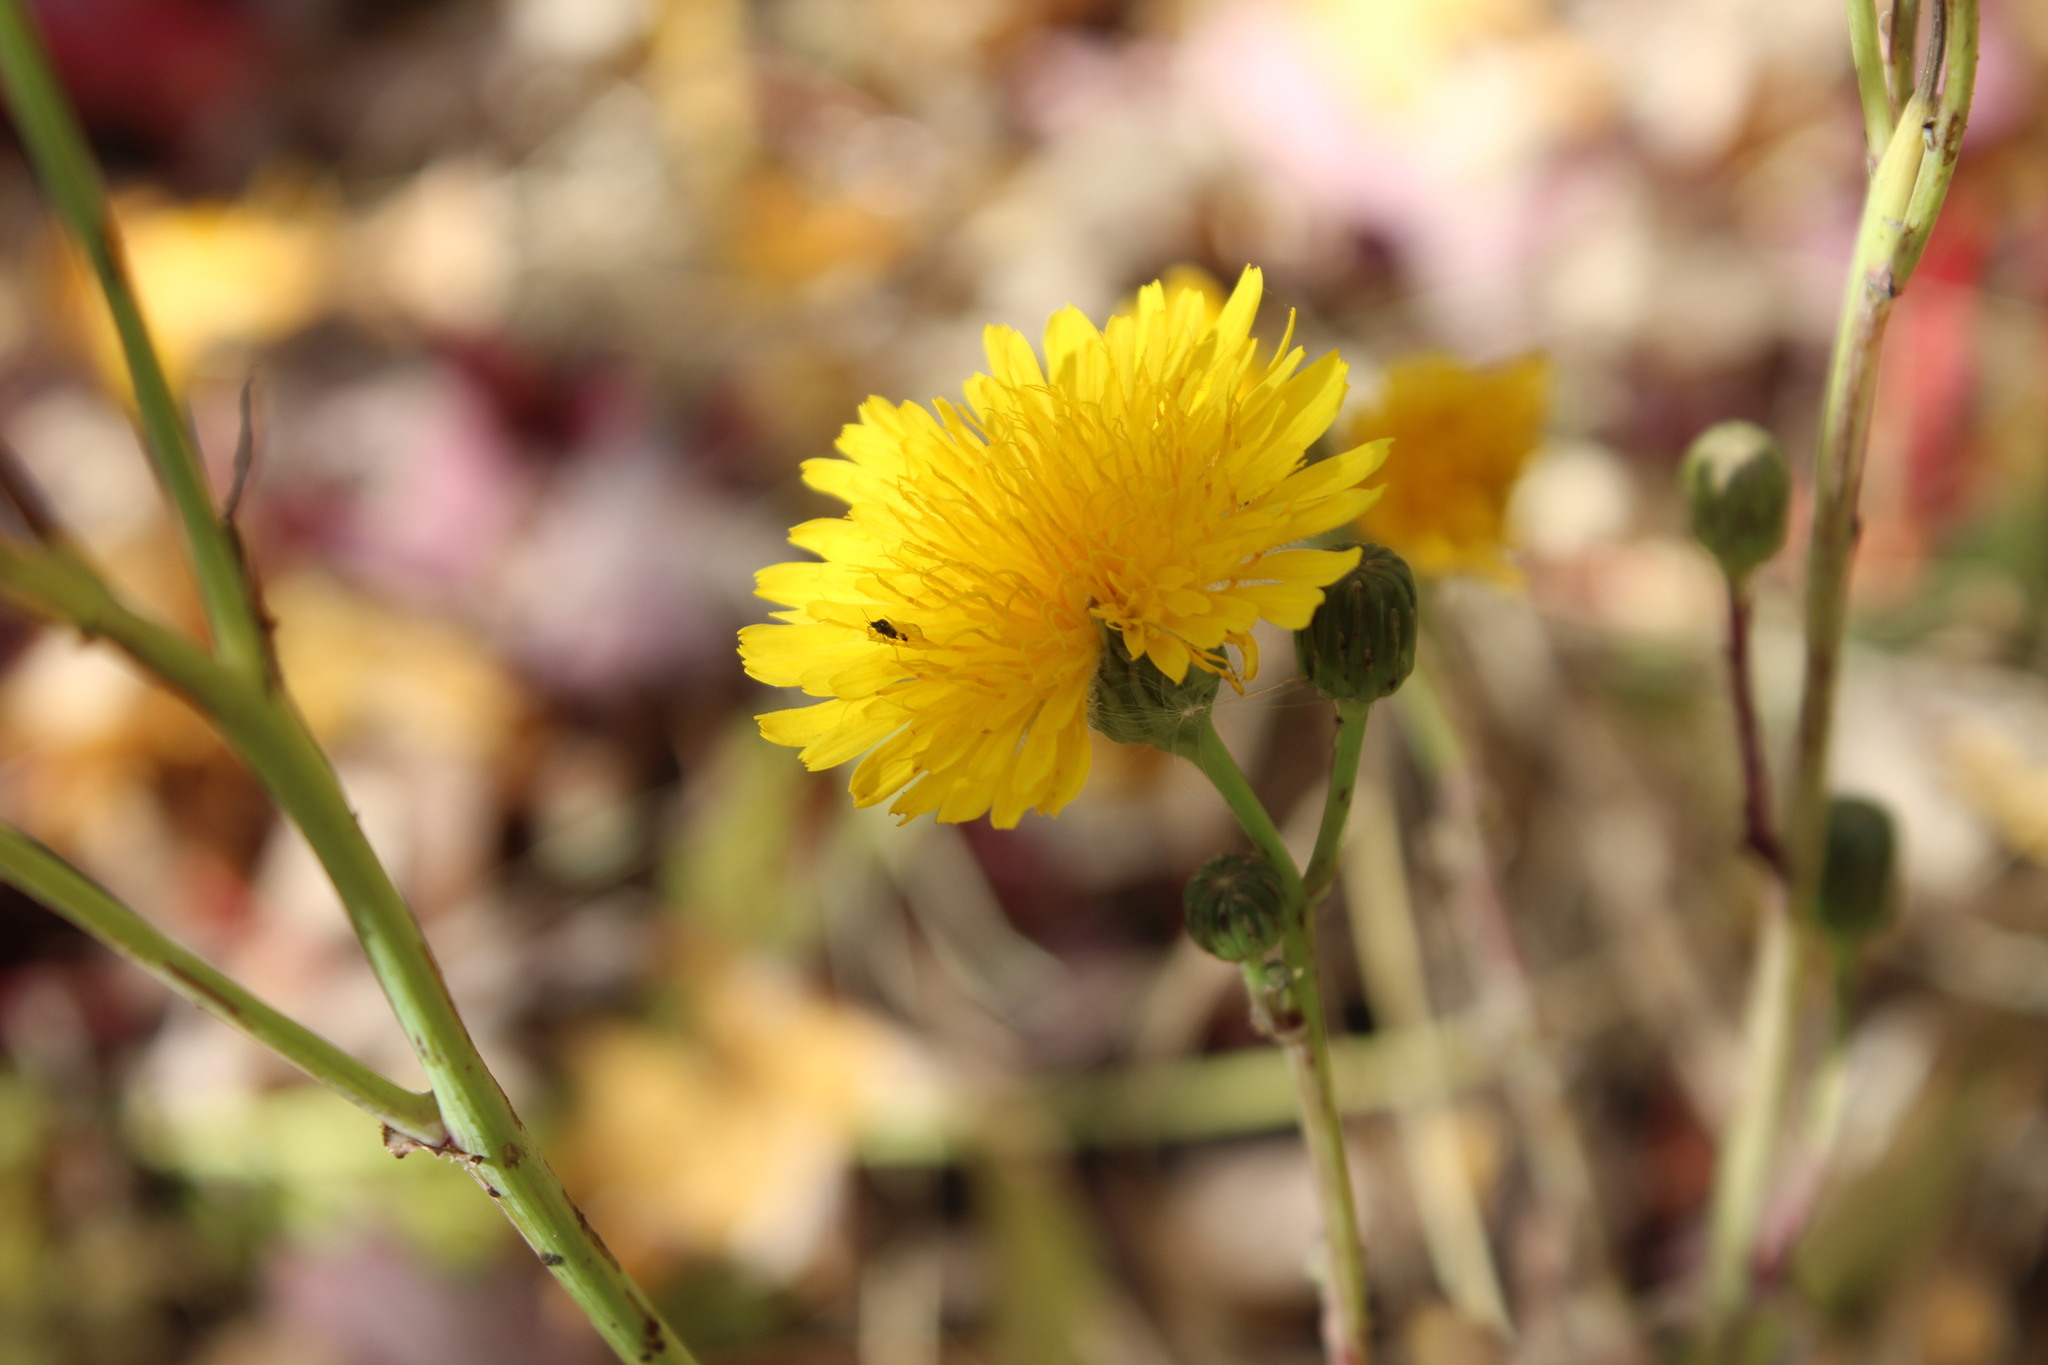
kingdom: Plantae
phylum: Tracheophyta
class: Magnoliopsida
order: Asterales
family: Asteraceae
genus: Sonchus
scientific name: Sonchus arvensis
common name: Perennial sow-thistle
